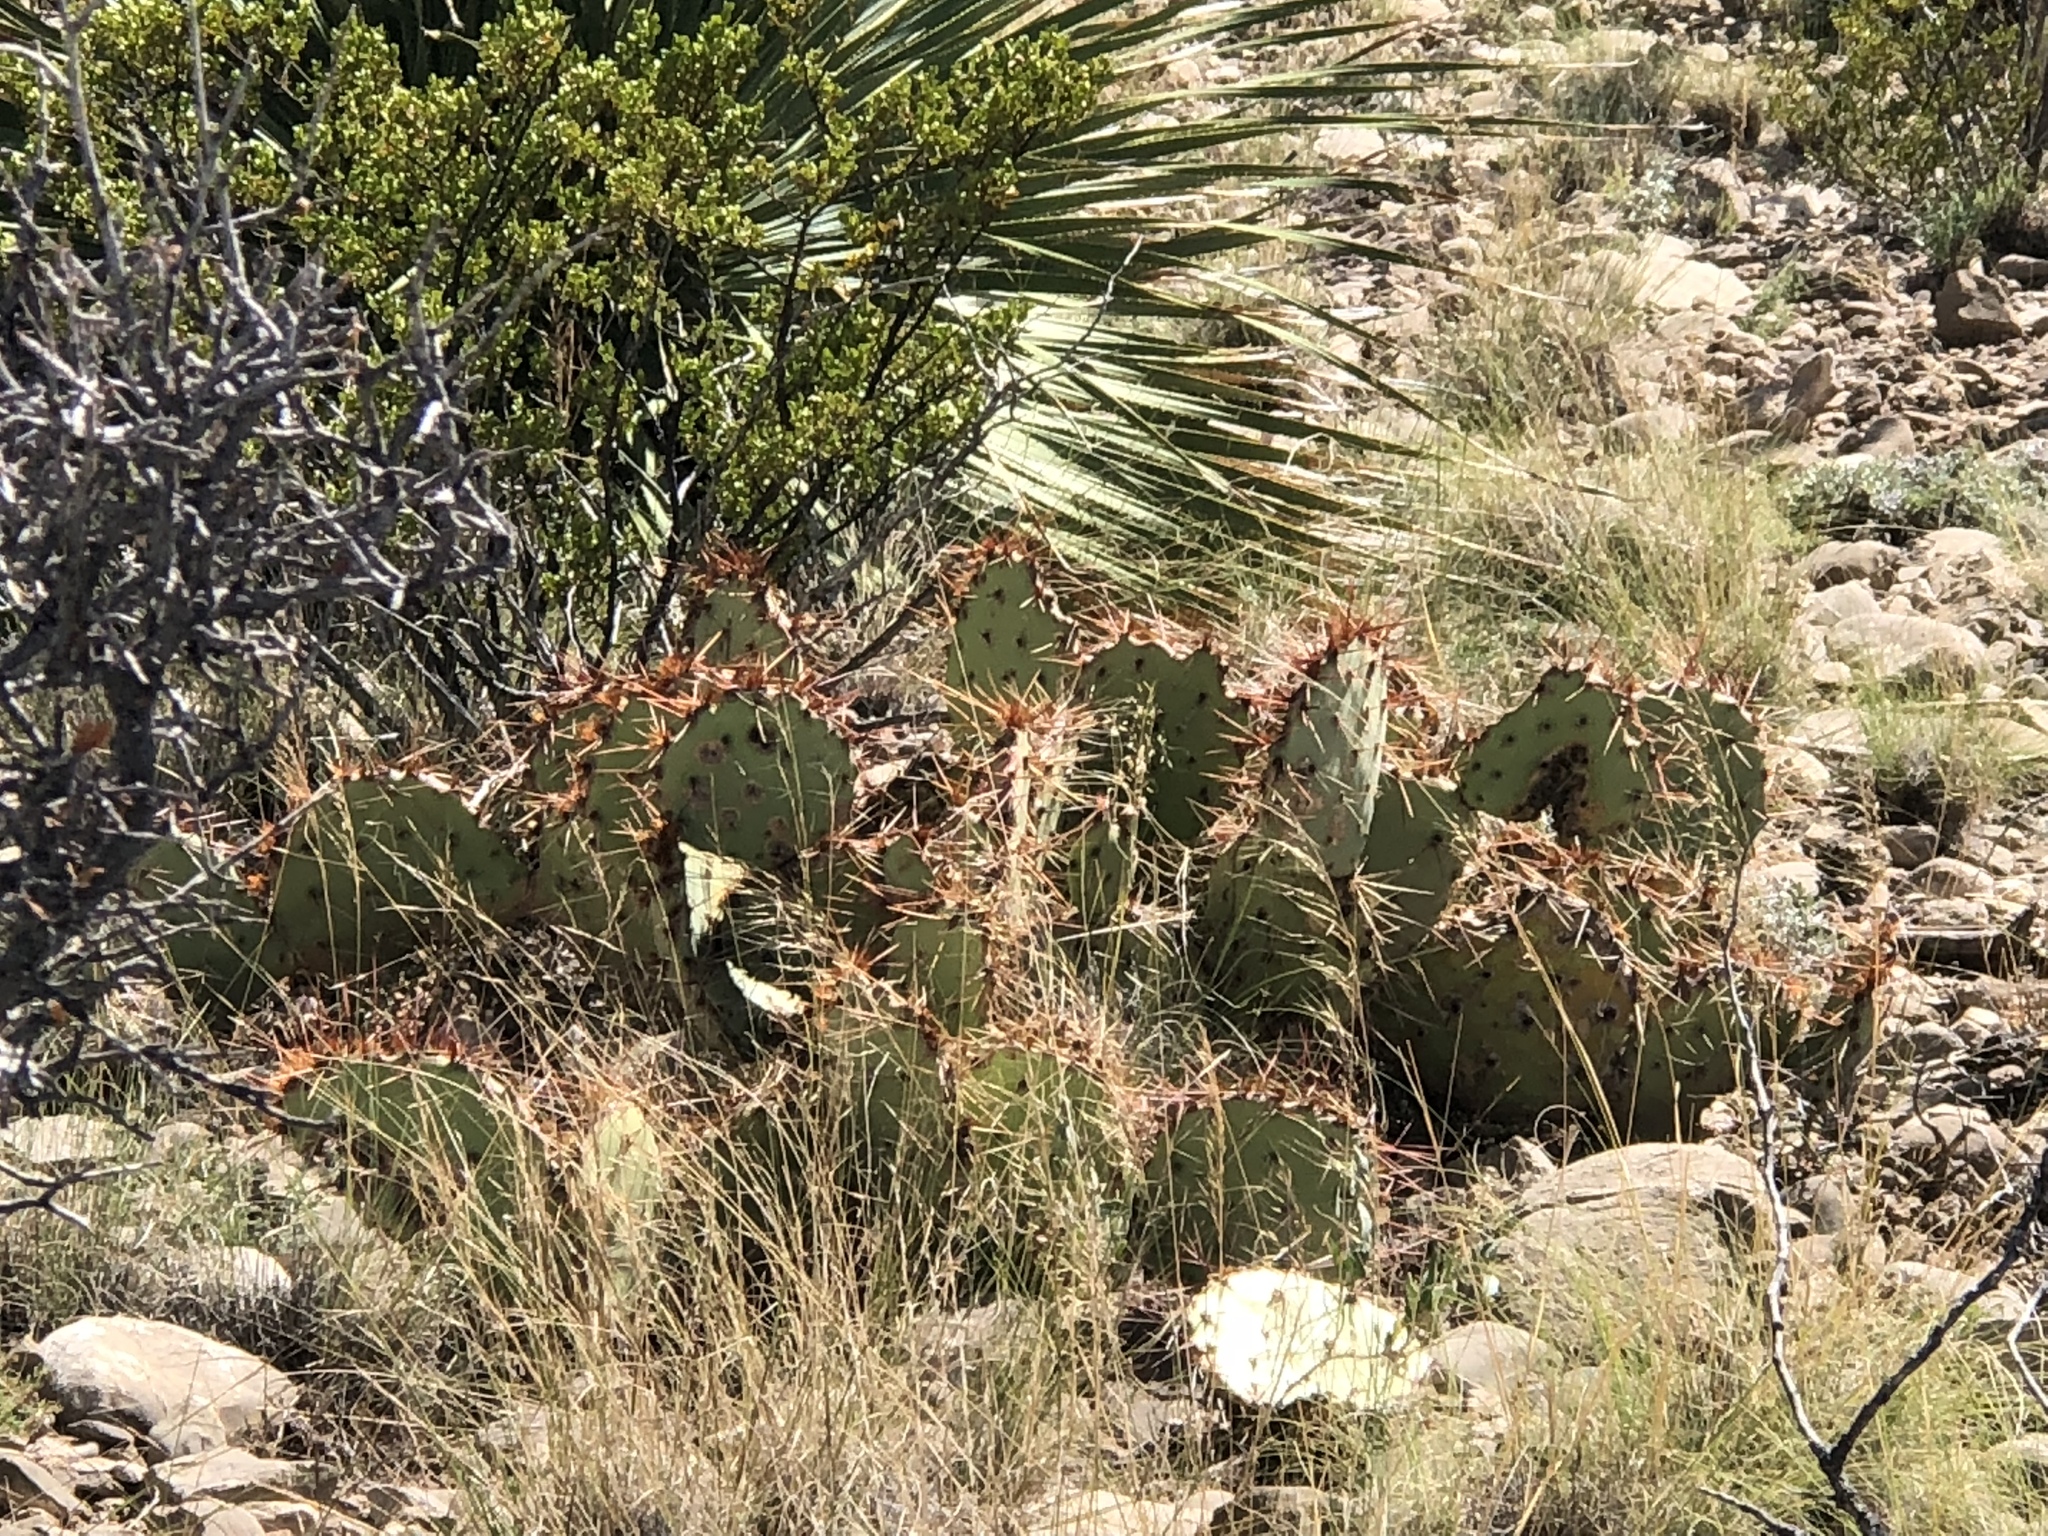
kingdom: Plantae
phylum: Tracheophyta
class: Magnoliopsida
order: Caryophyllales
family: Cactaceae
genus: Opuntia
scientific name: Opuntia engelmannii
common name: Cactus-apple
